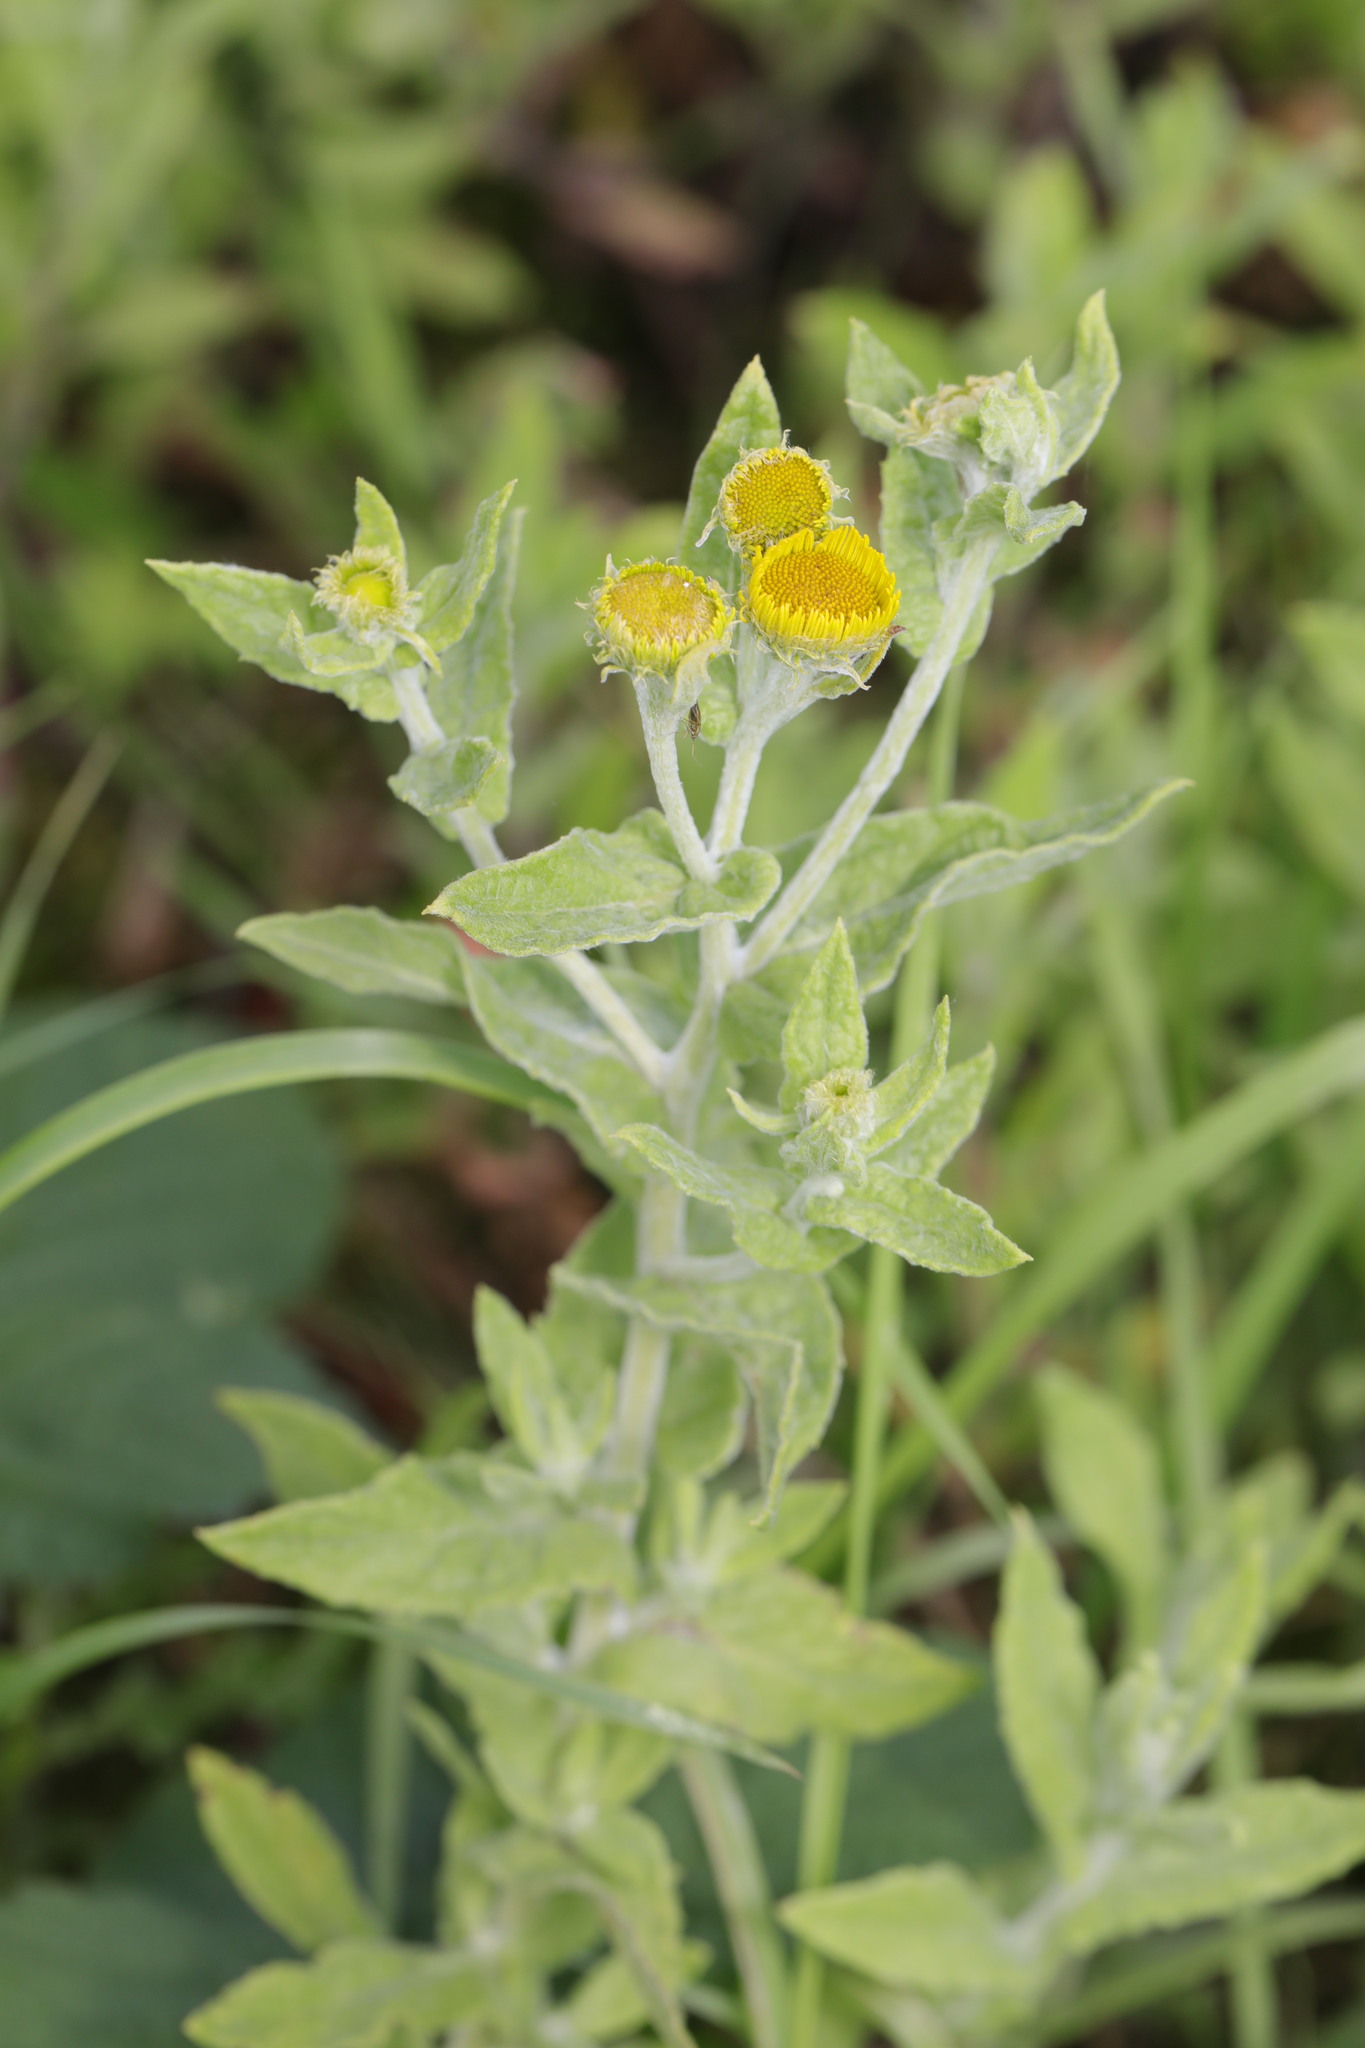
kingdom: Plantae
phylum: Tracheophyta
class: Magnoliopsida
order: Asterales
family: Asteraceae
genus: Pulicaria
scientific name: Pulicaria dysenterica
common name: Common fleabane
